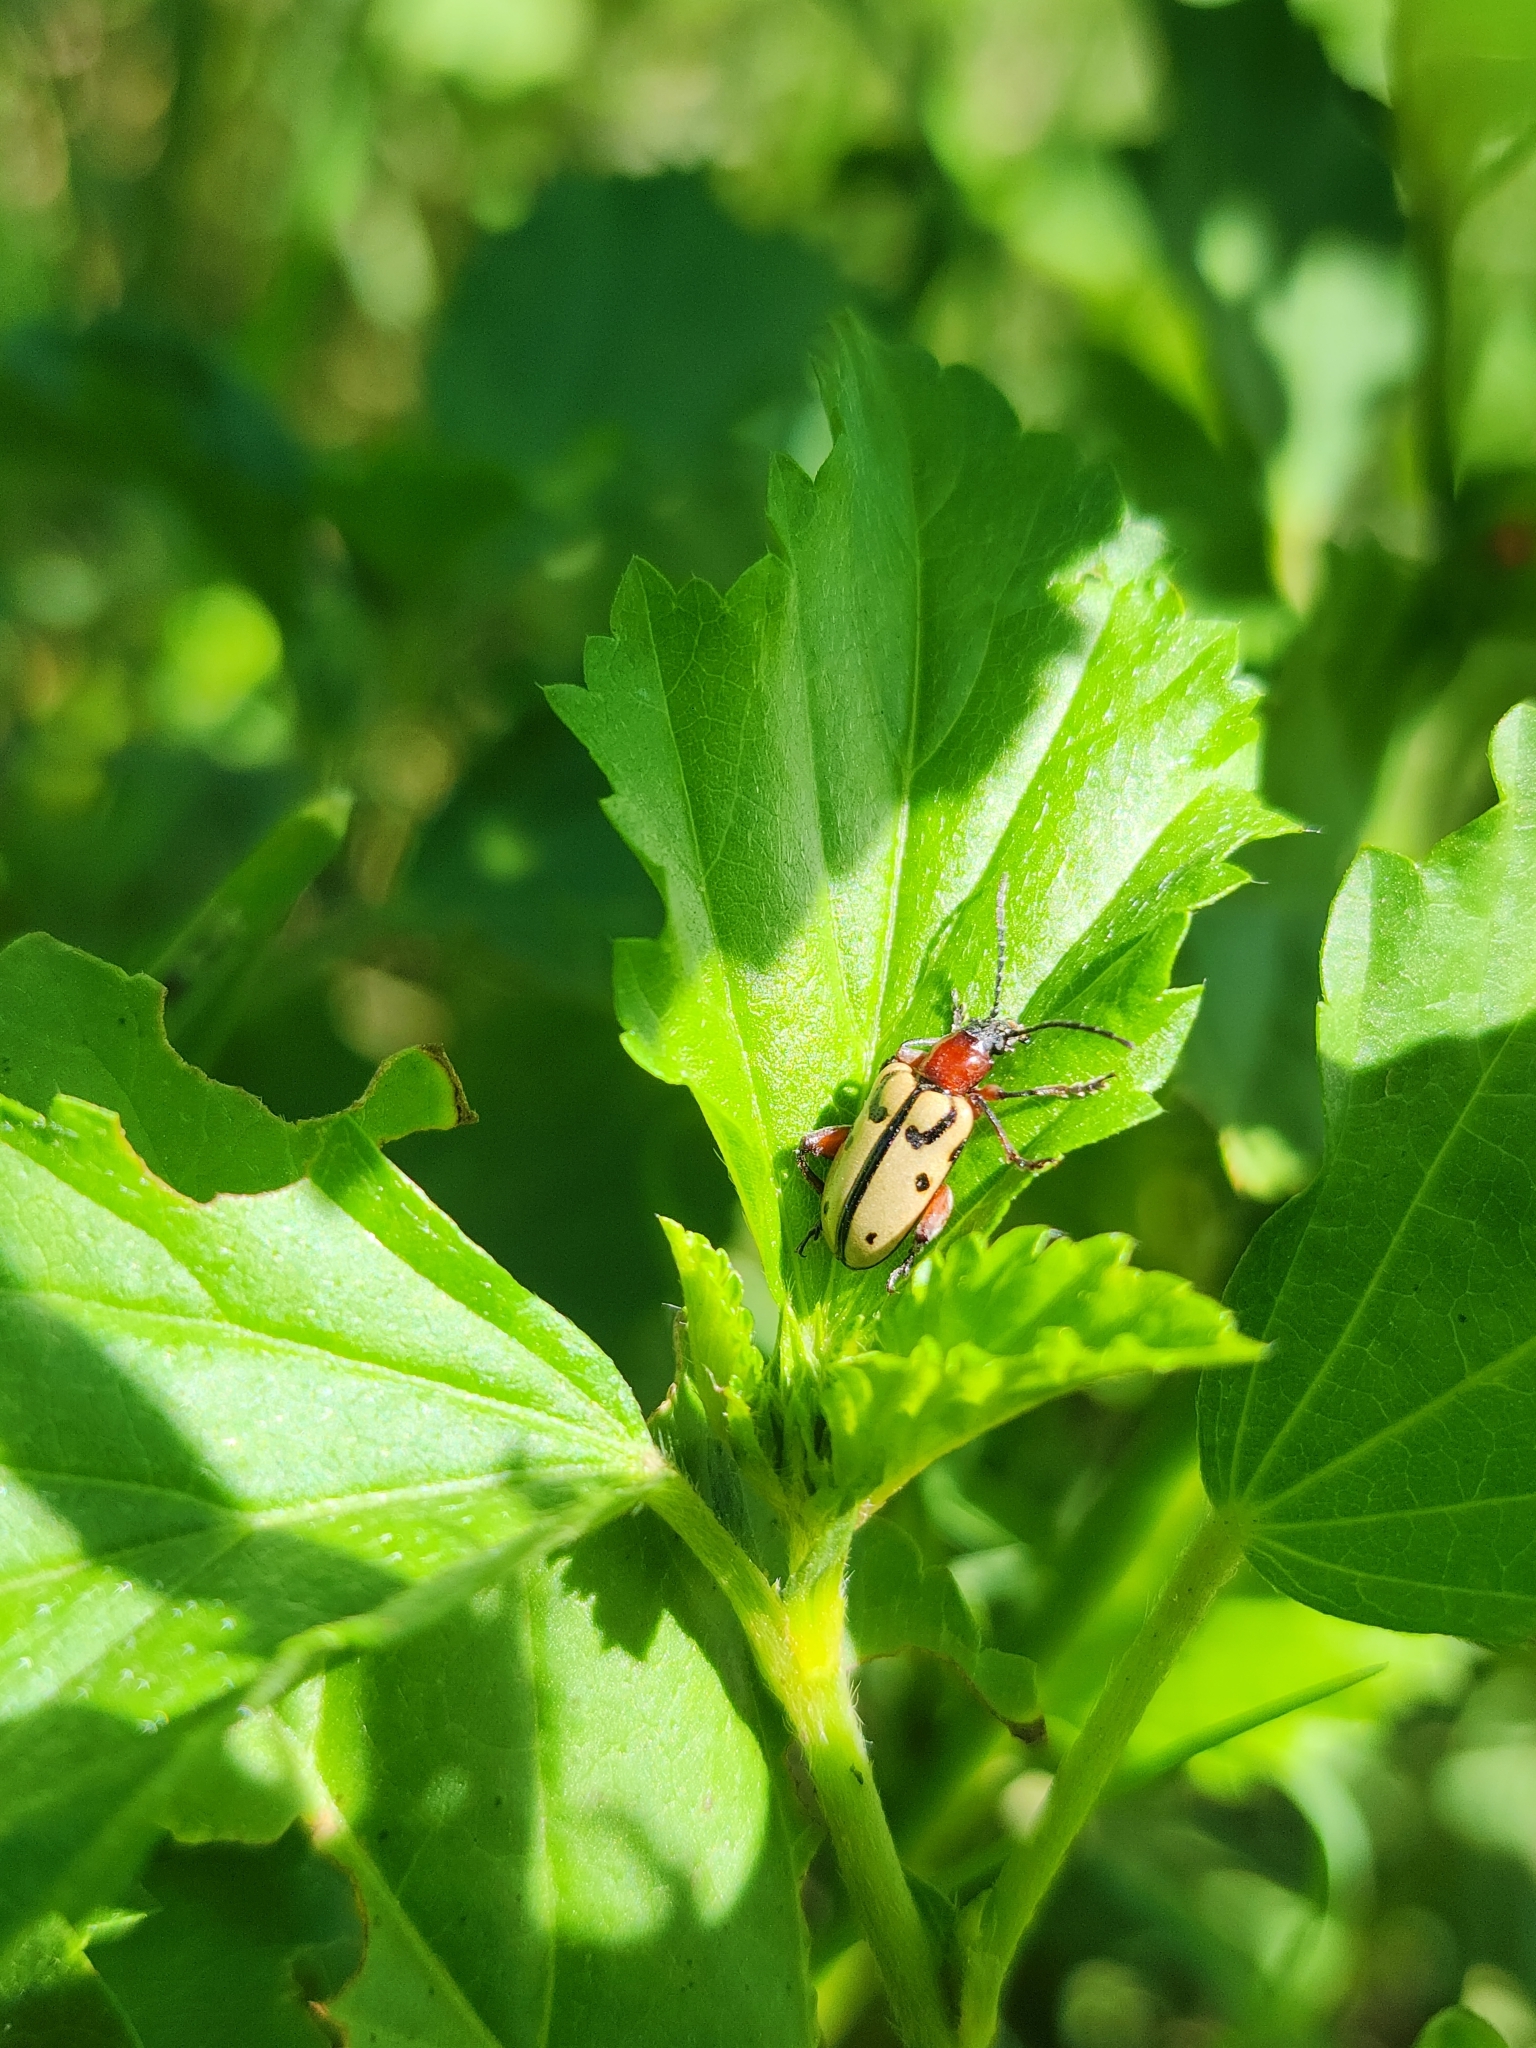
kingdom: Animalia
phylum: Arthropoda
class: Insecta
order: Coleoptera
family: Chrysomelidae
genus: Atalasis
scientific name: Atalasis
